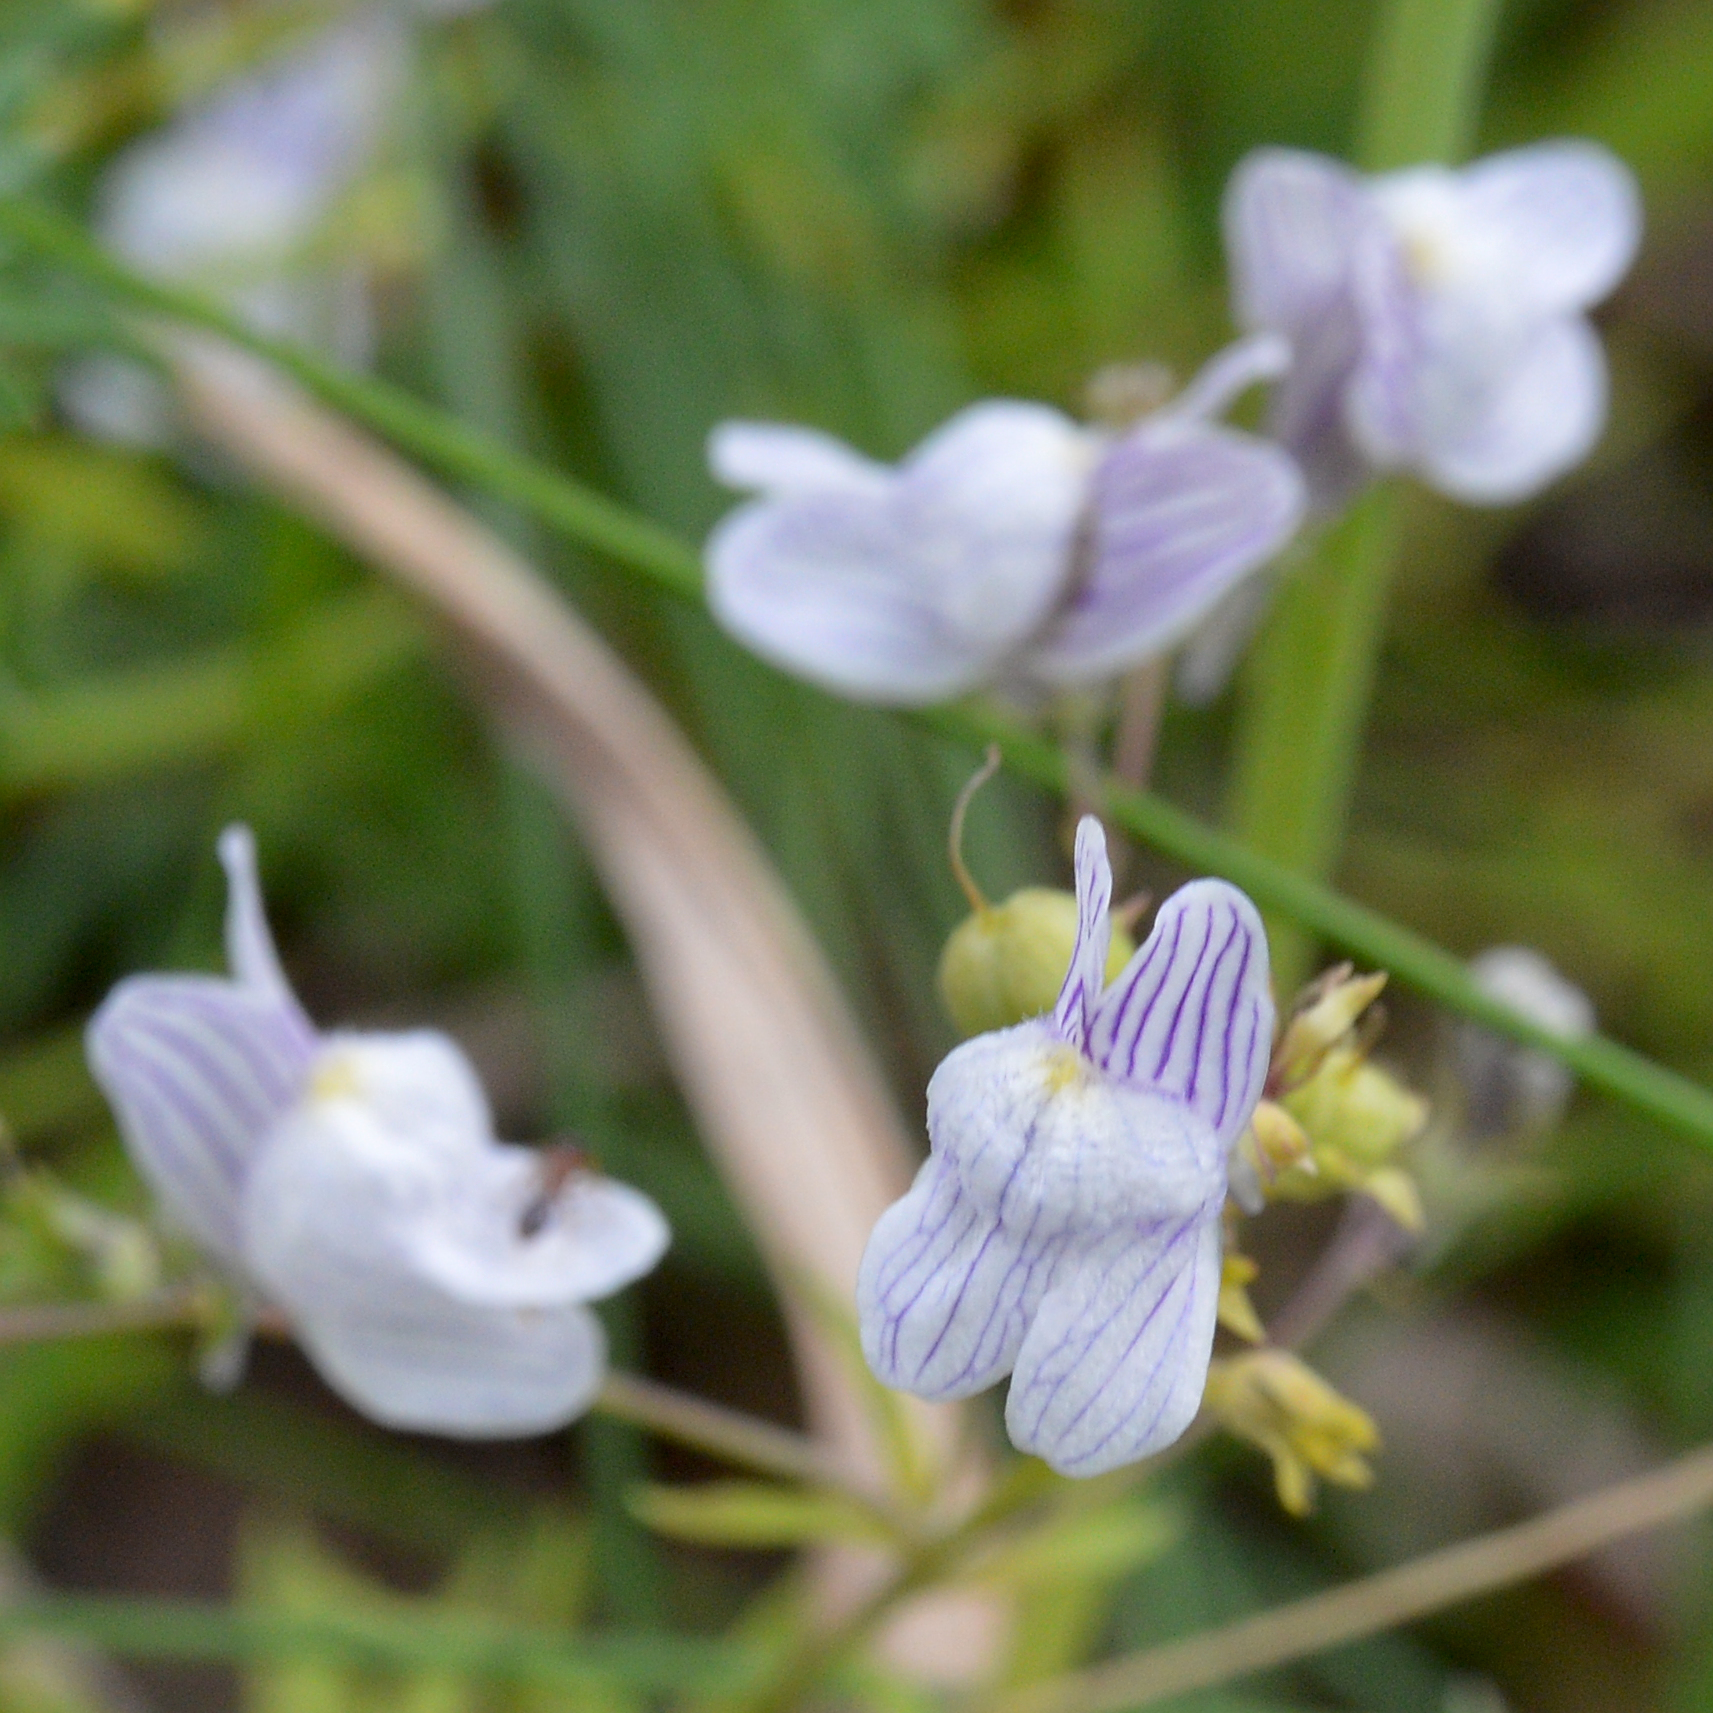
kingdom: Plantae
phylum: Tracheophyta
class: Magnoliopsida
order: Lamiales
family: Plantaginaceae
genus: Linaria
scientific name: Linaria repens
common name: Pale toadflax
